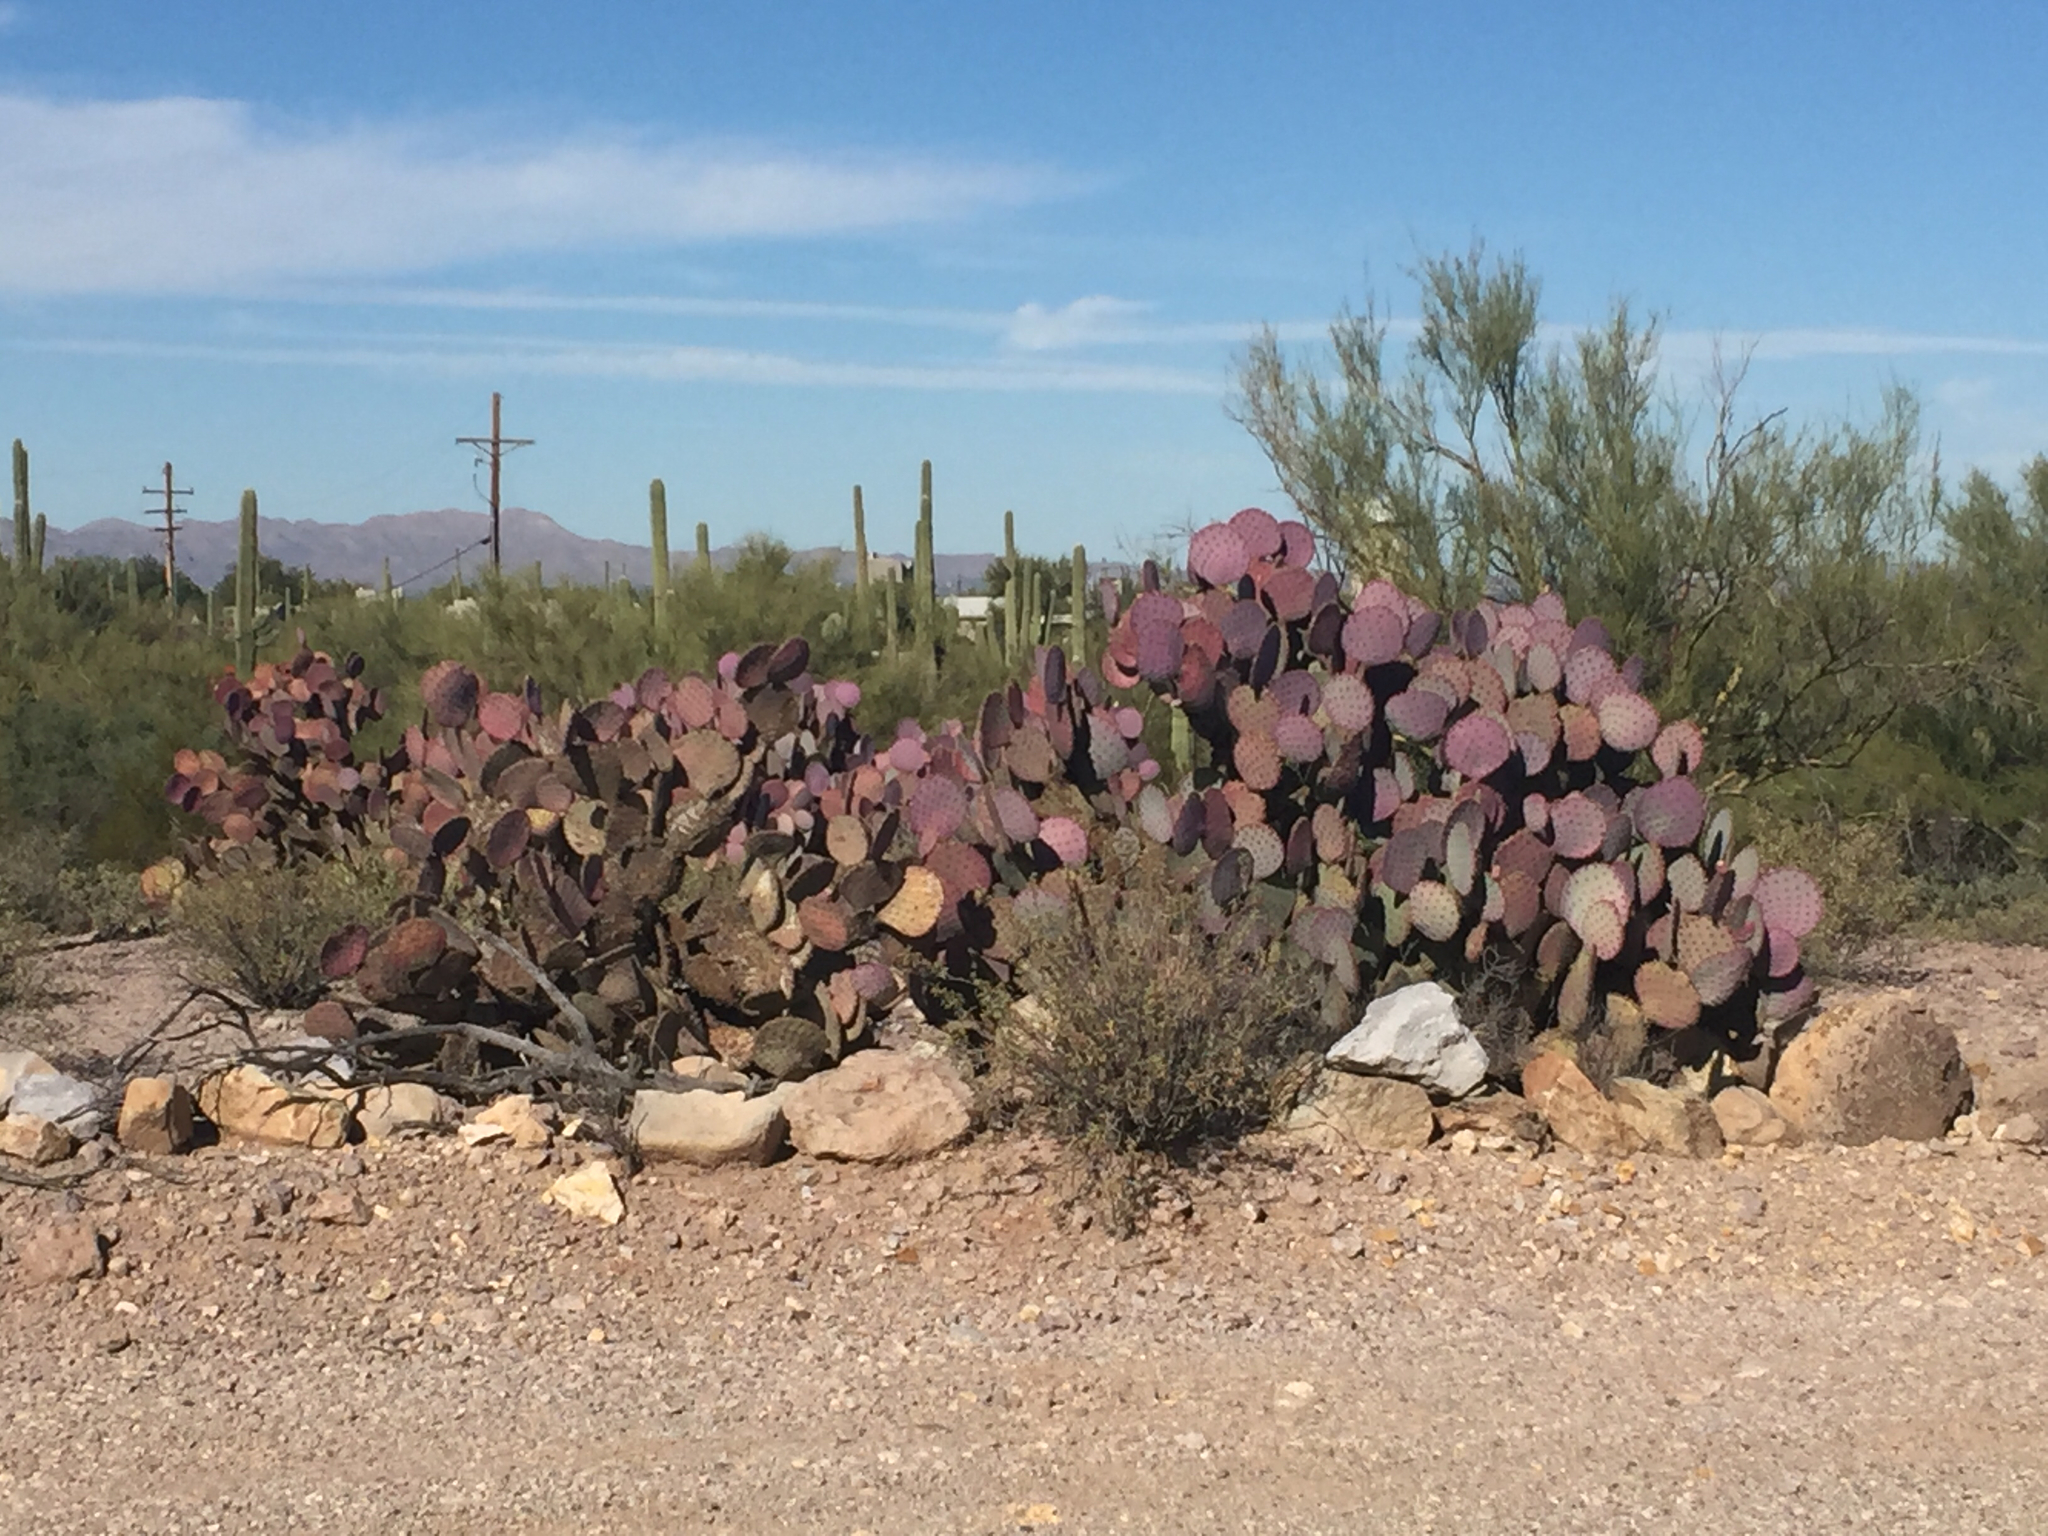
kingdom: Plantae
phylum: Tracheophyta
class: Magnoliopsida
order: Caryophyllales
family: Cactaceae
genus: Opuntia
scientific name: Opuntia gosseliniana
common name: Violet prickly-pear
